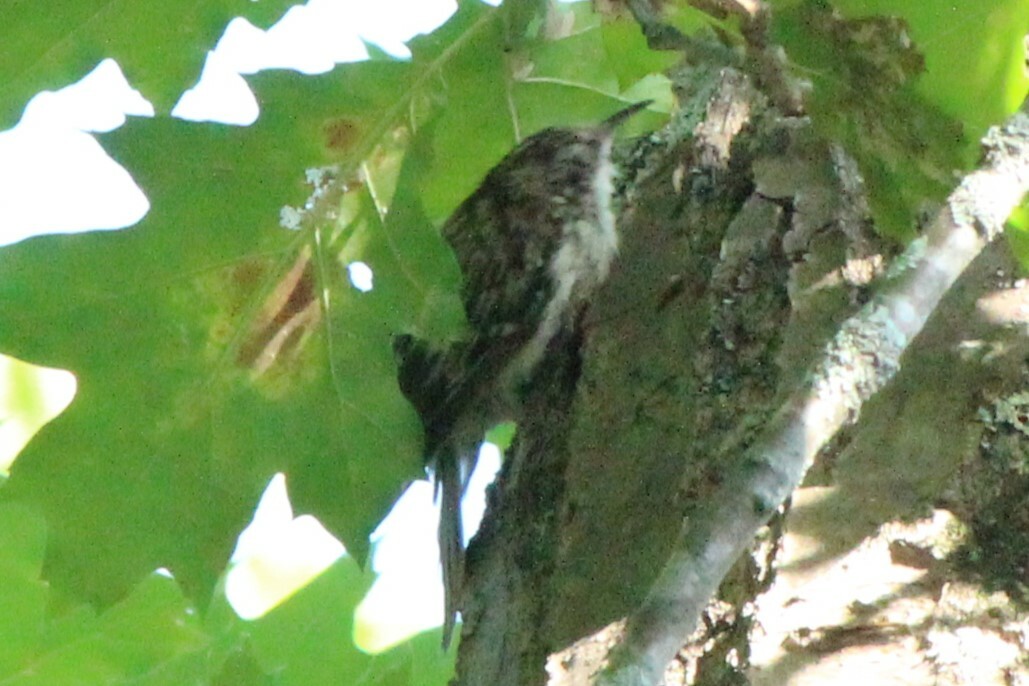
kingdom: Animalia
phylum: Chordata
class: Aves
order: Passeriformes
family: Certhiidae
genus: Certhia
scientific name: Certhia americana
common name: Brown creeper
